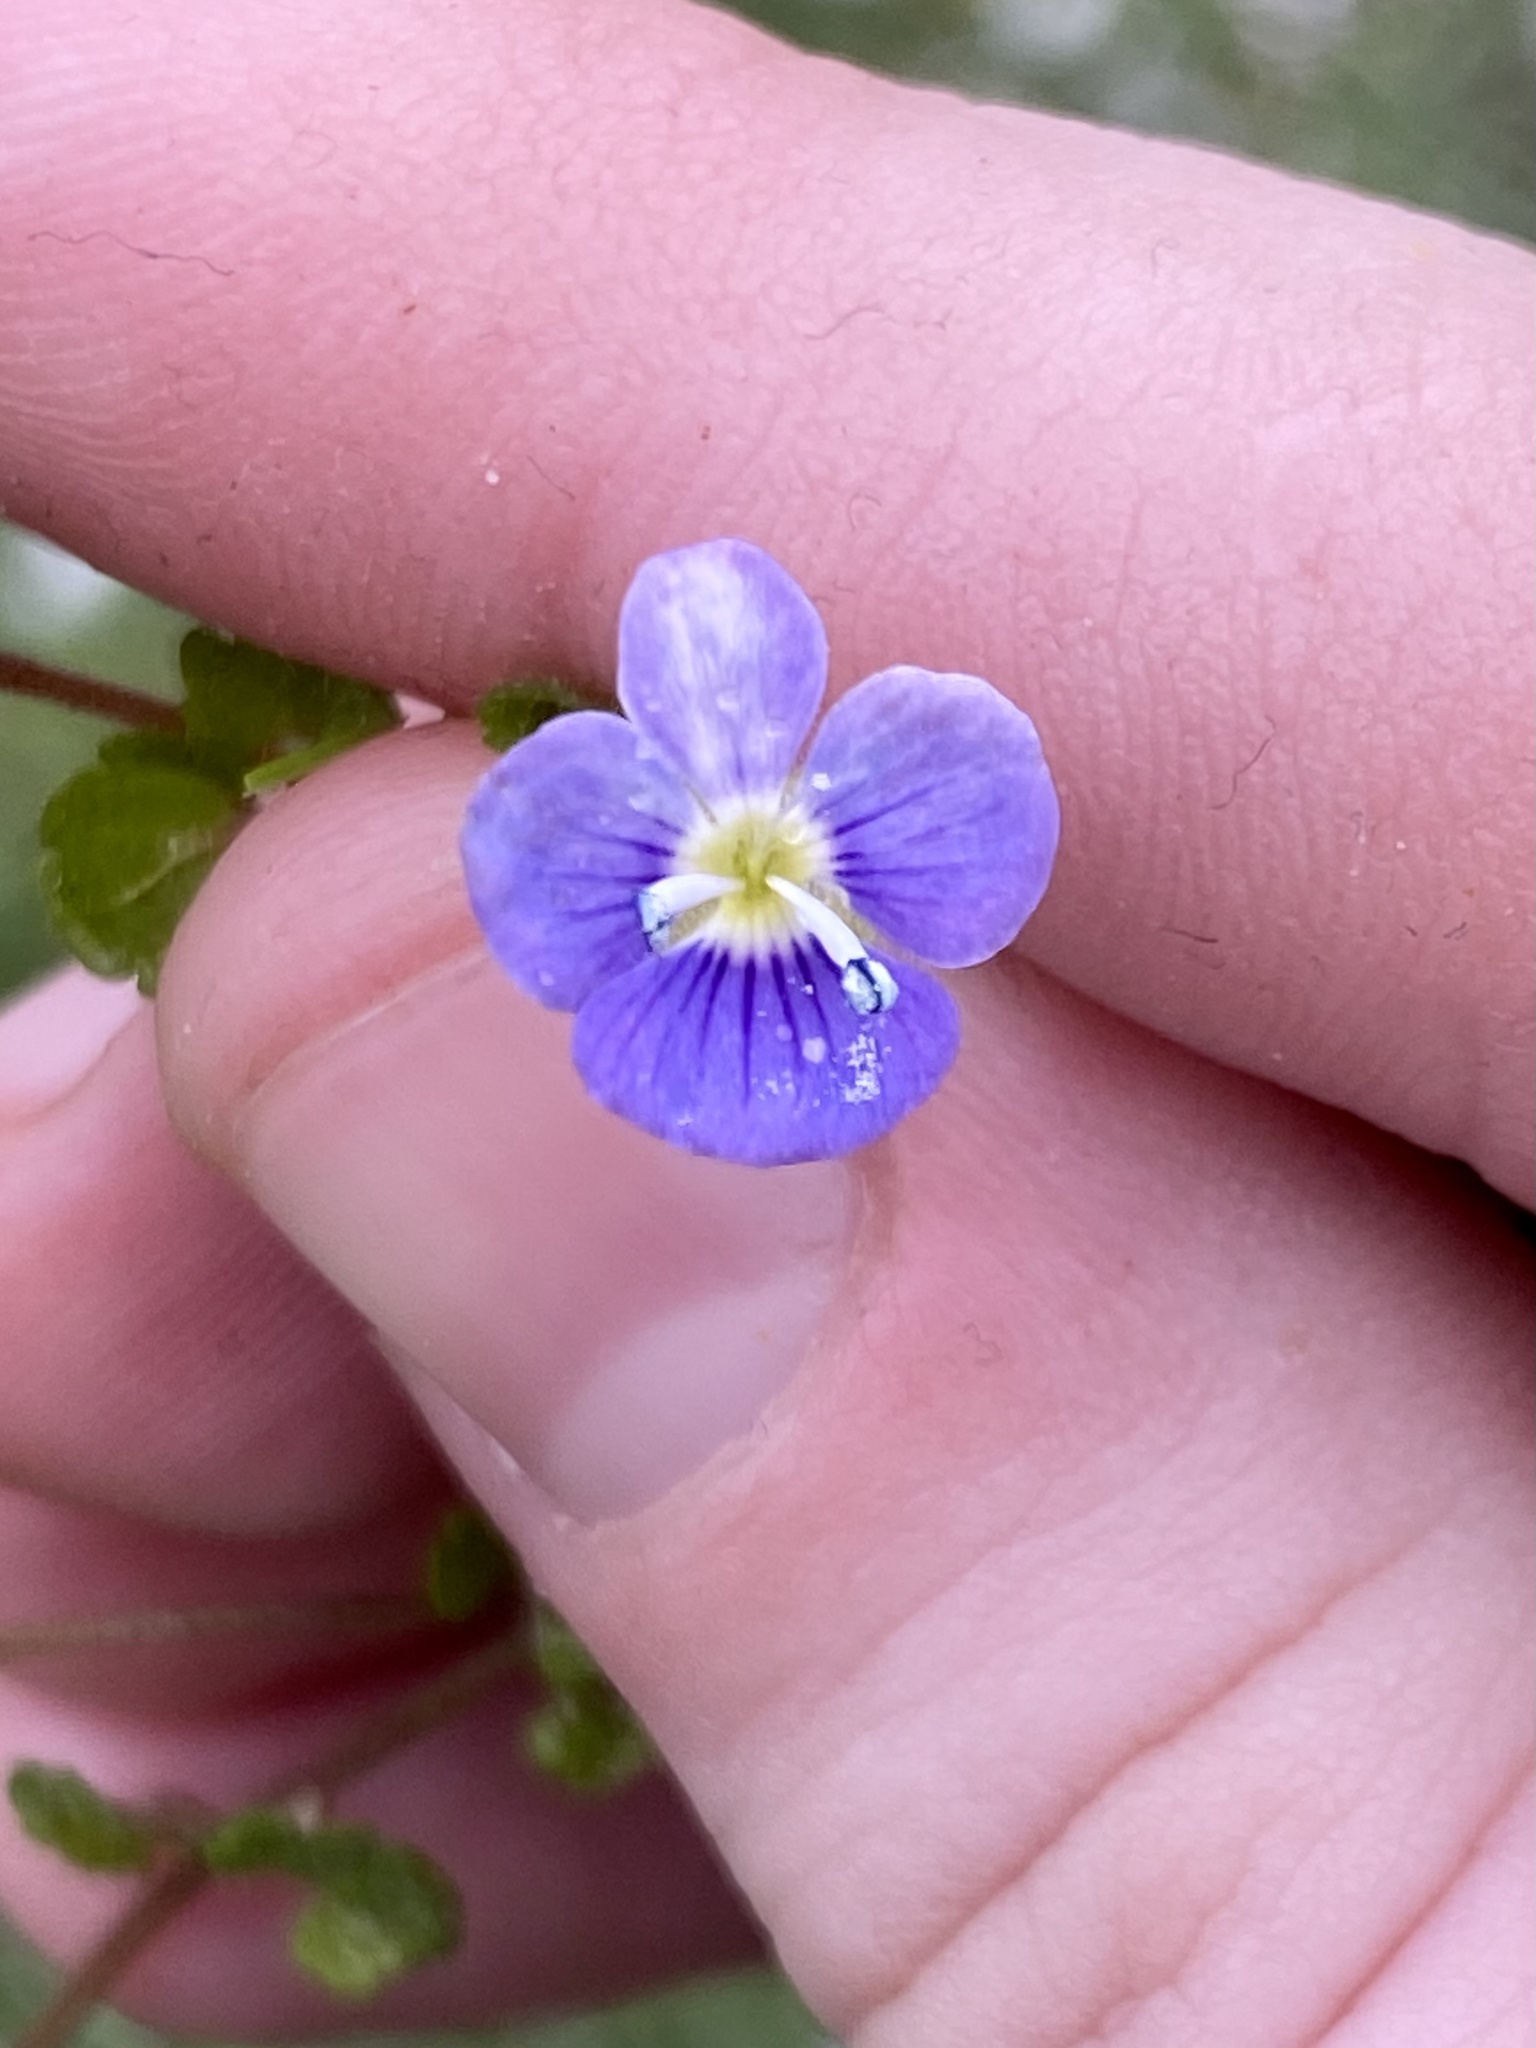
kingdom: Plantae
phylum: Tracheophyta
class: Magnoliopsida
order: Lamiales
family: Plantaginaceae
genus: Veronica
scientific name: Veronica filiformis
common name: Slender speedwell
